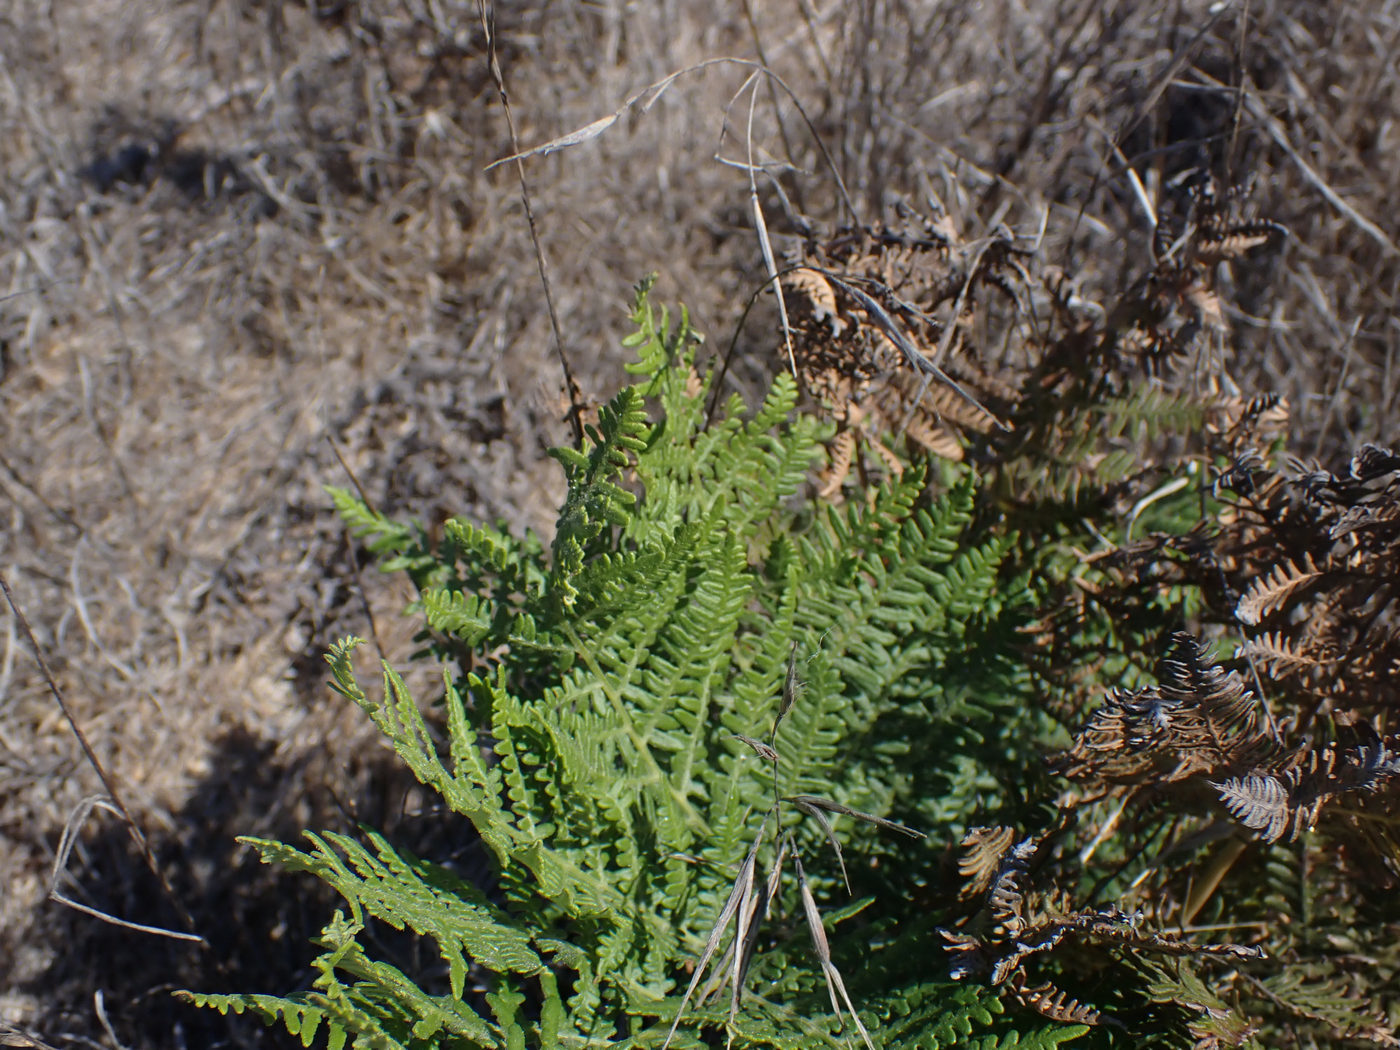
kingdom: Plantae
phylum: Tracheophyta
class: Polypodiopsida
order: Polypodiales
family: Dennstaedtiaceae
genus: Pteridium
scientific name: Pteridium aquilinum
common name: Bracken
